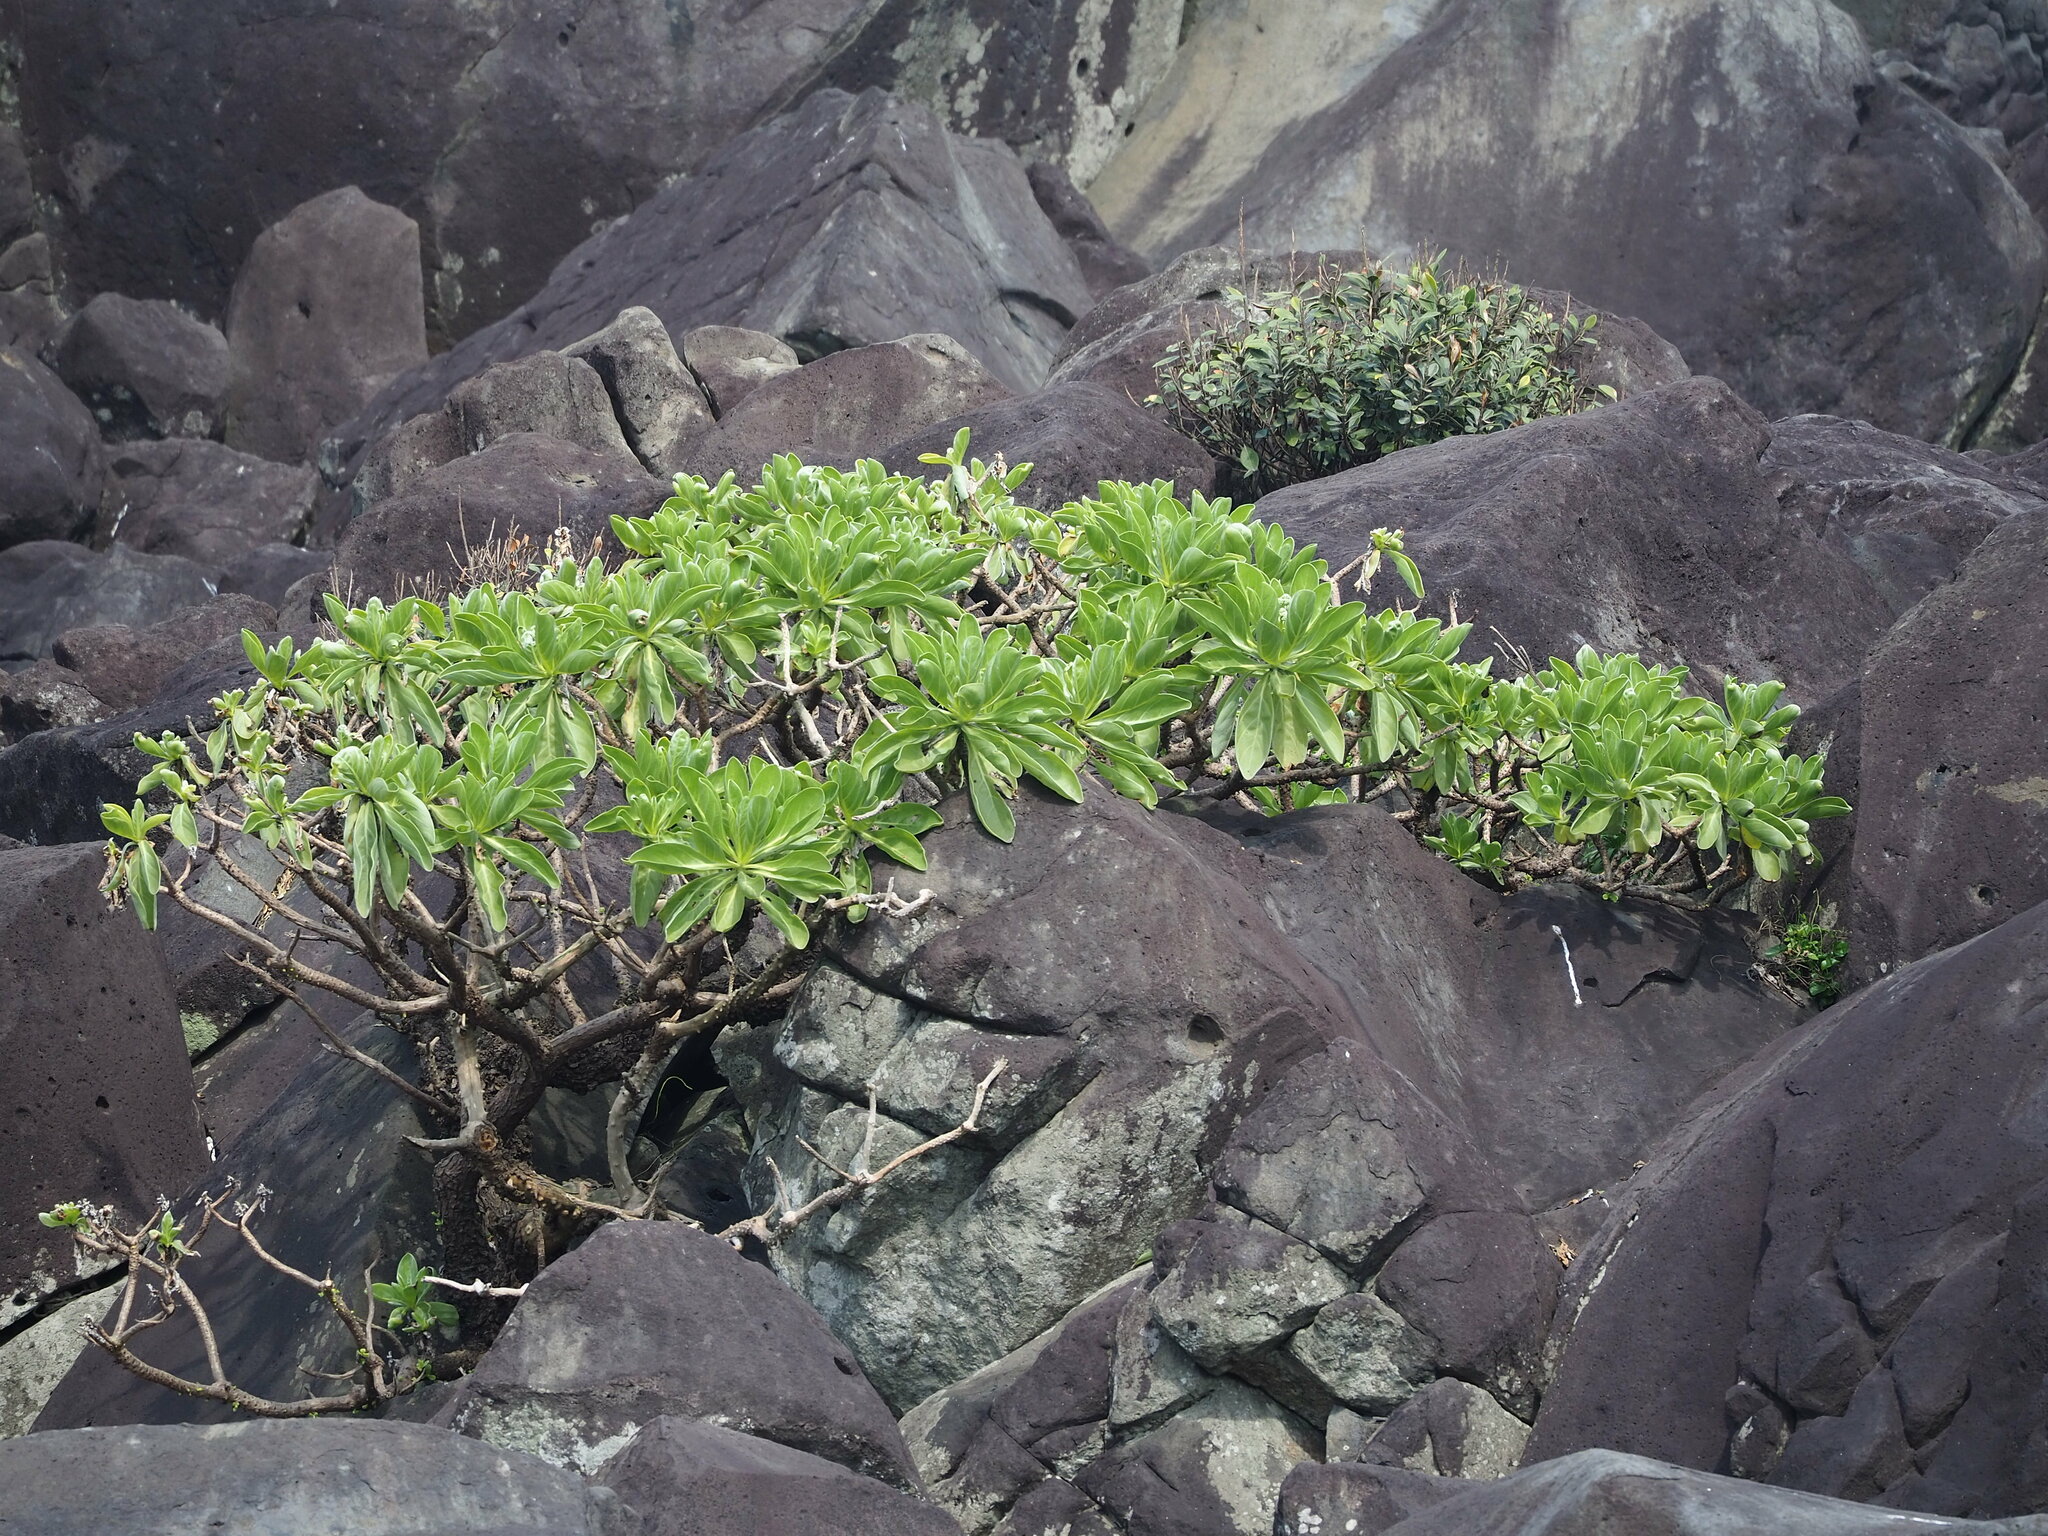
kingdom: Plantae
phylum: Tracheophyta
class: Magnoliopsida
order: Boraginales
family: Heliotropiaceae
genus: Heliotropium
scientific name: Heliotropium velutinum
